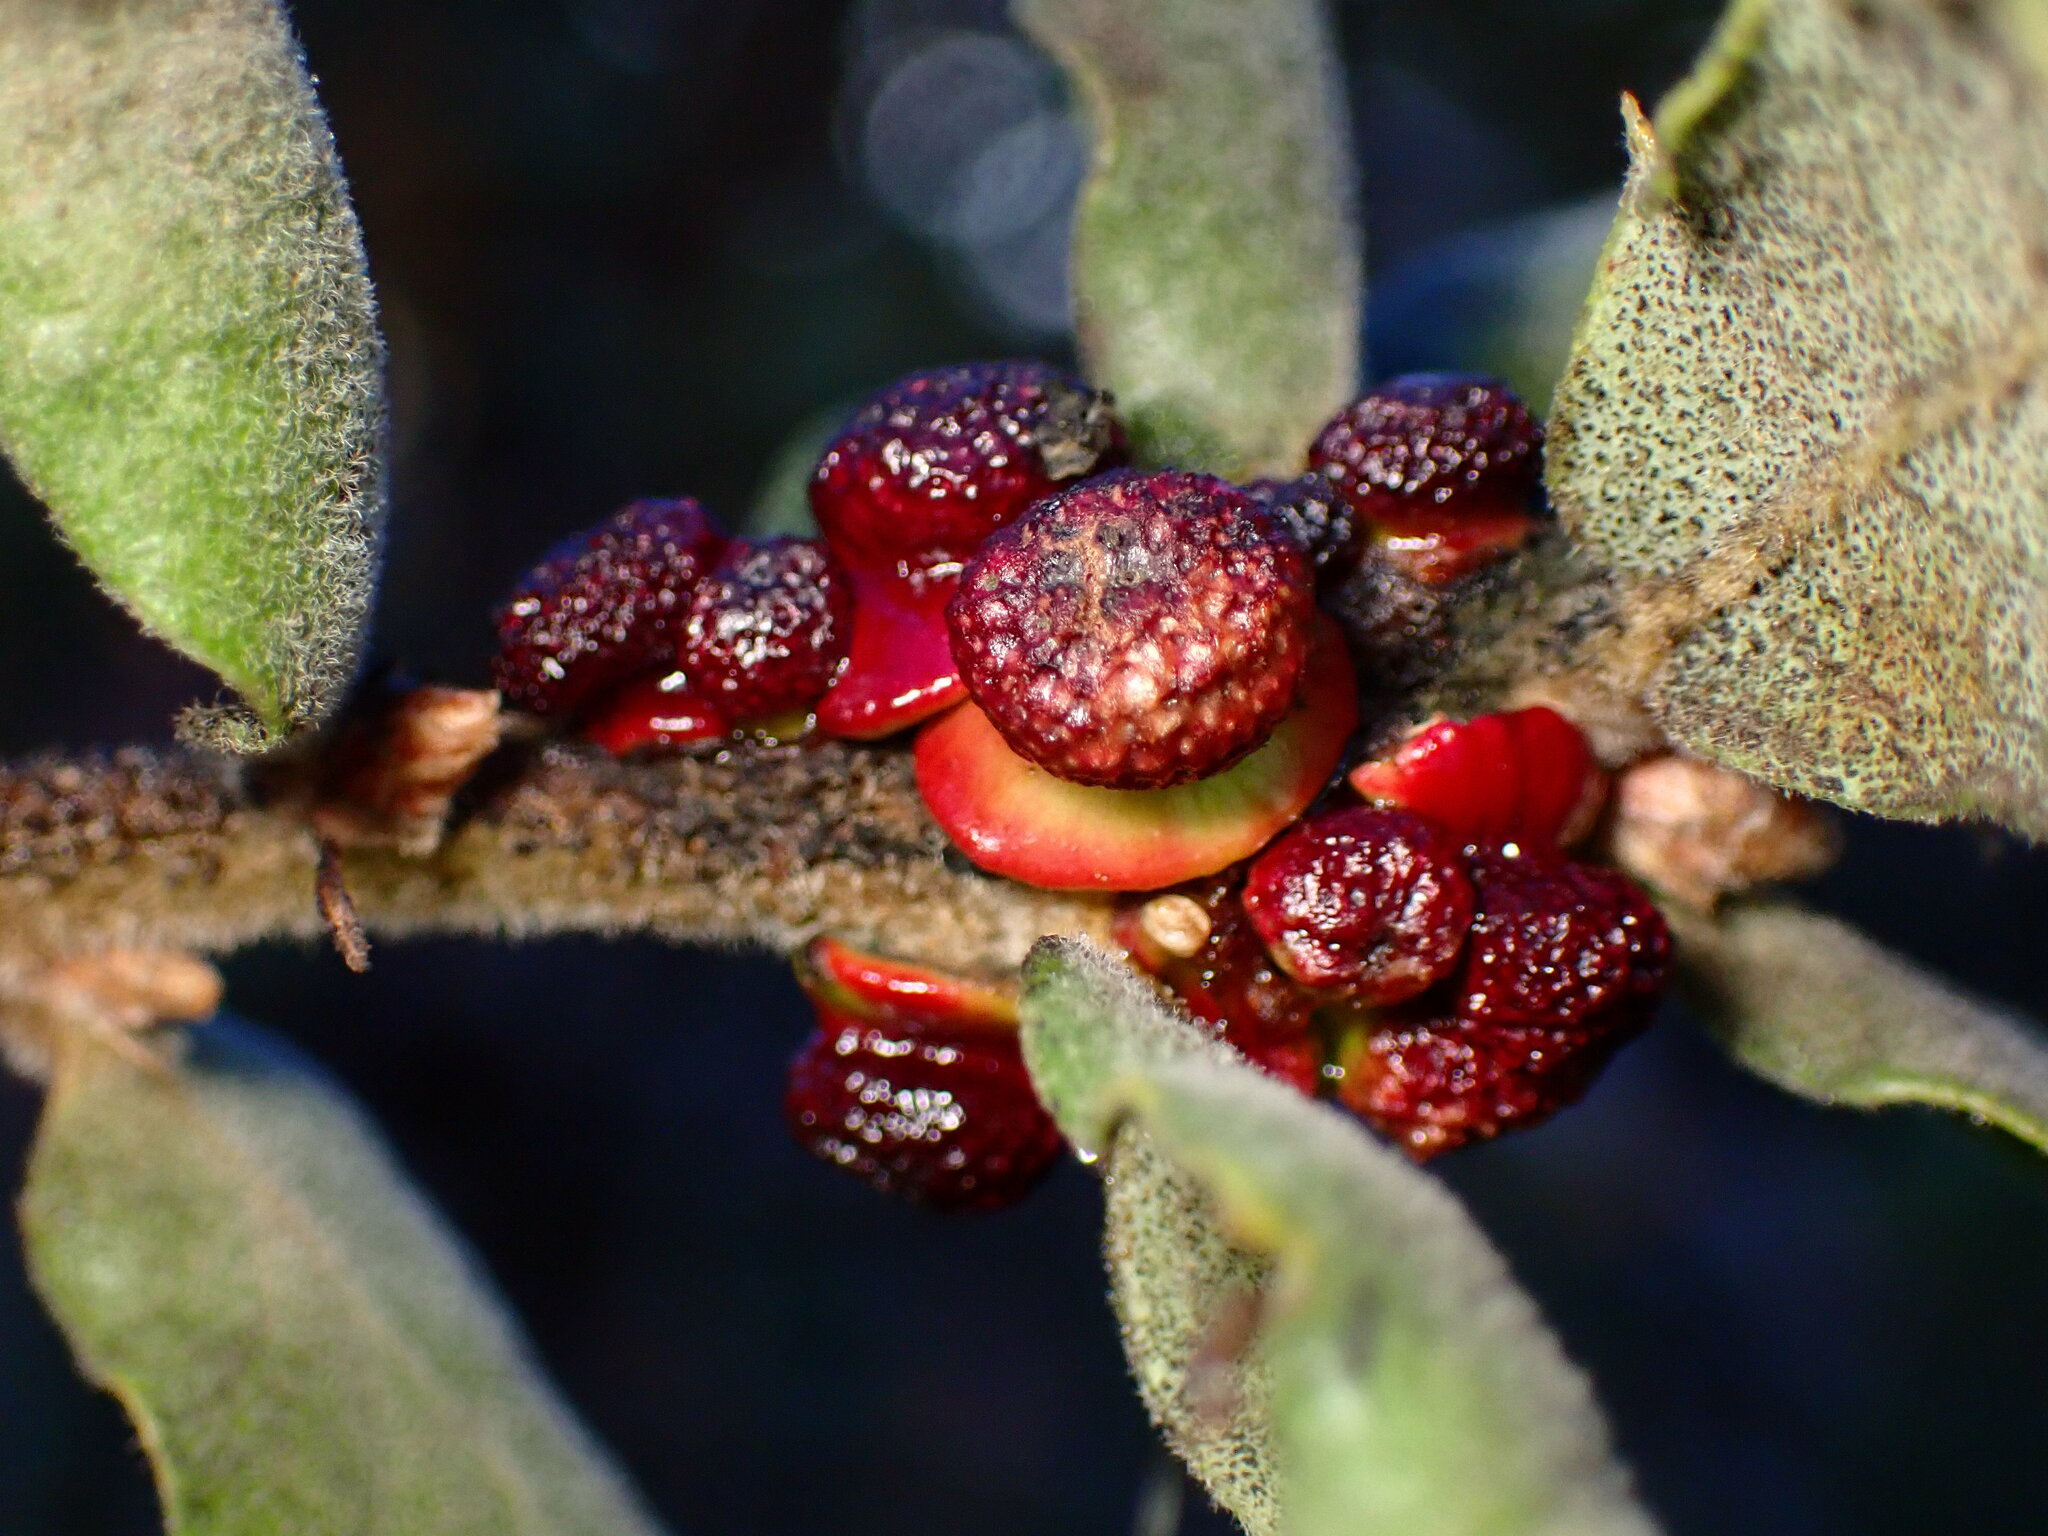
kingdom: Animalia
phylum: Arthropoda
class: Insecta
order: Hymenoptera
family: Cynipidae
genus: Disholcaspis
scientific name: Disholcaspis prehensa
